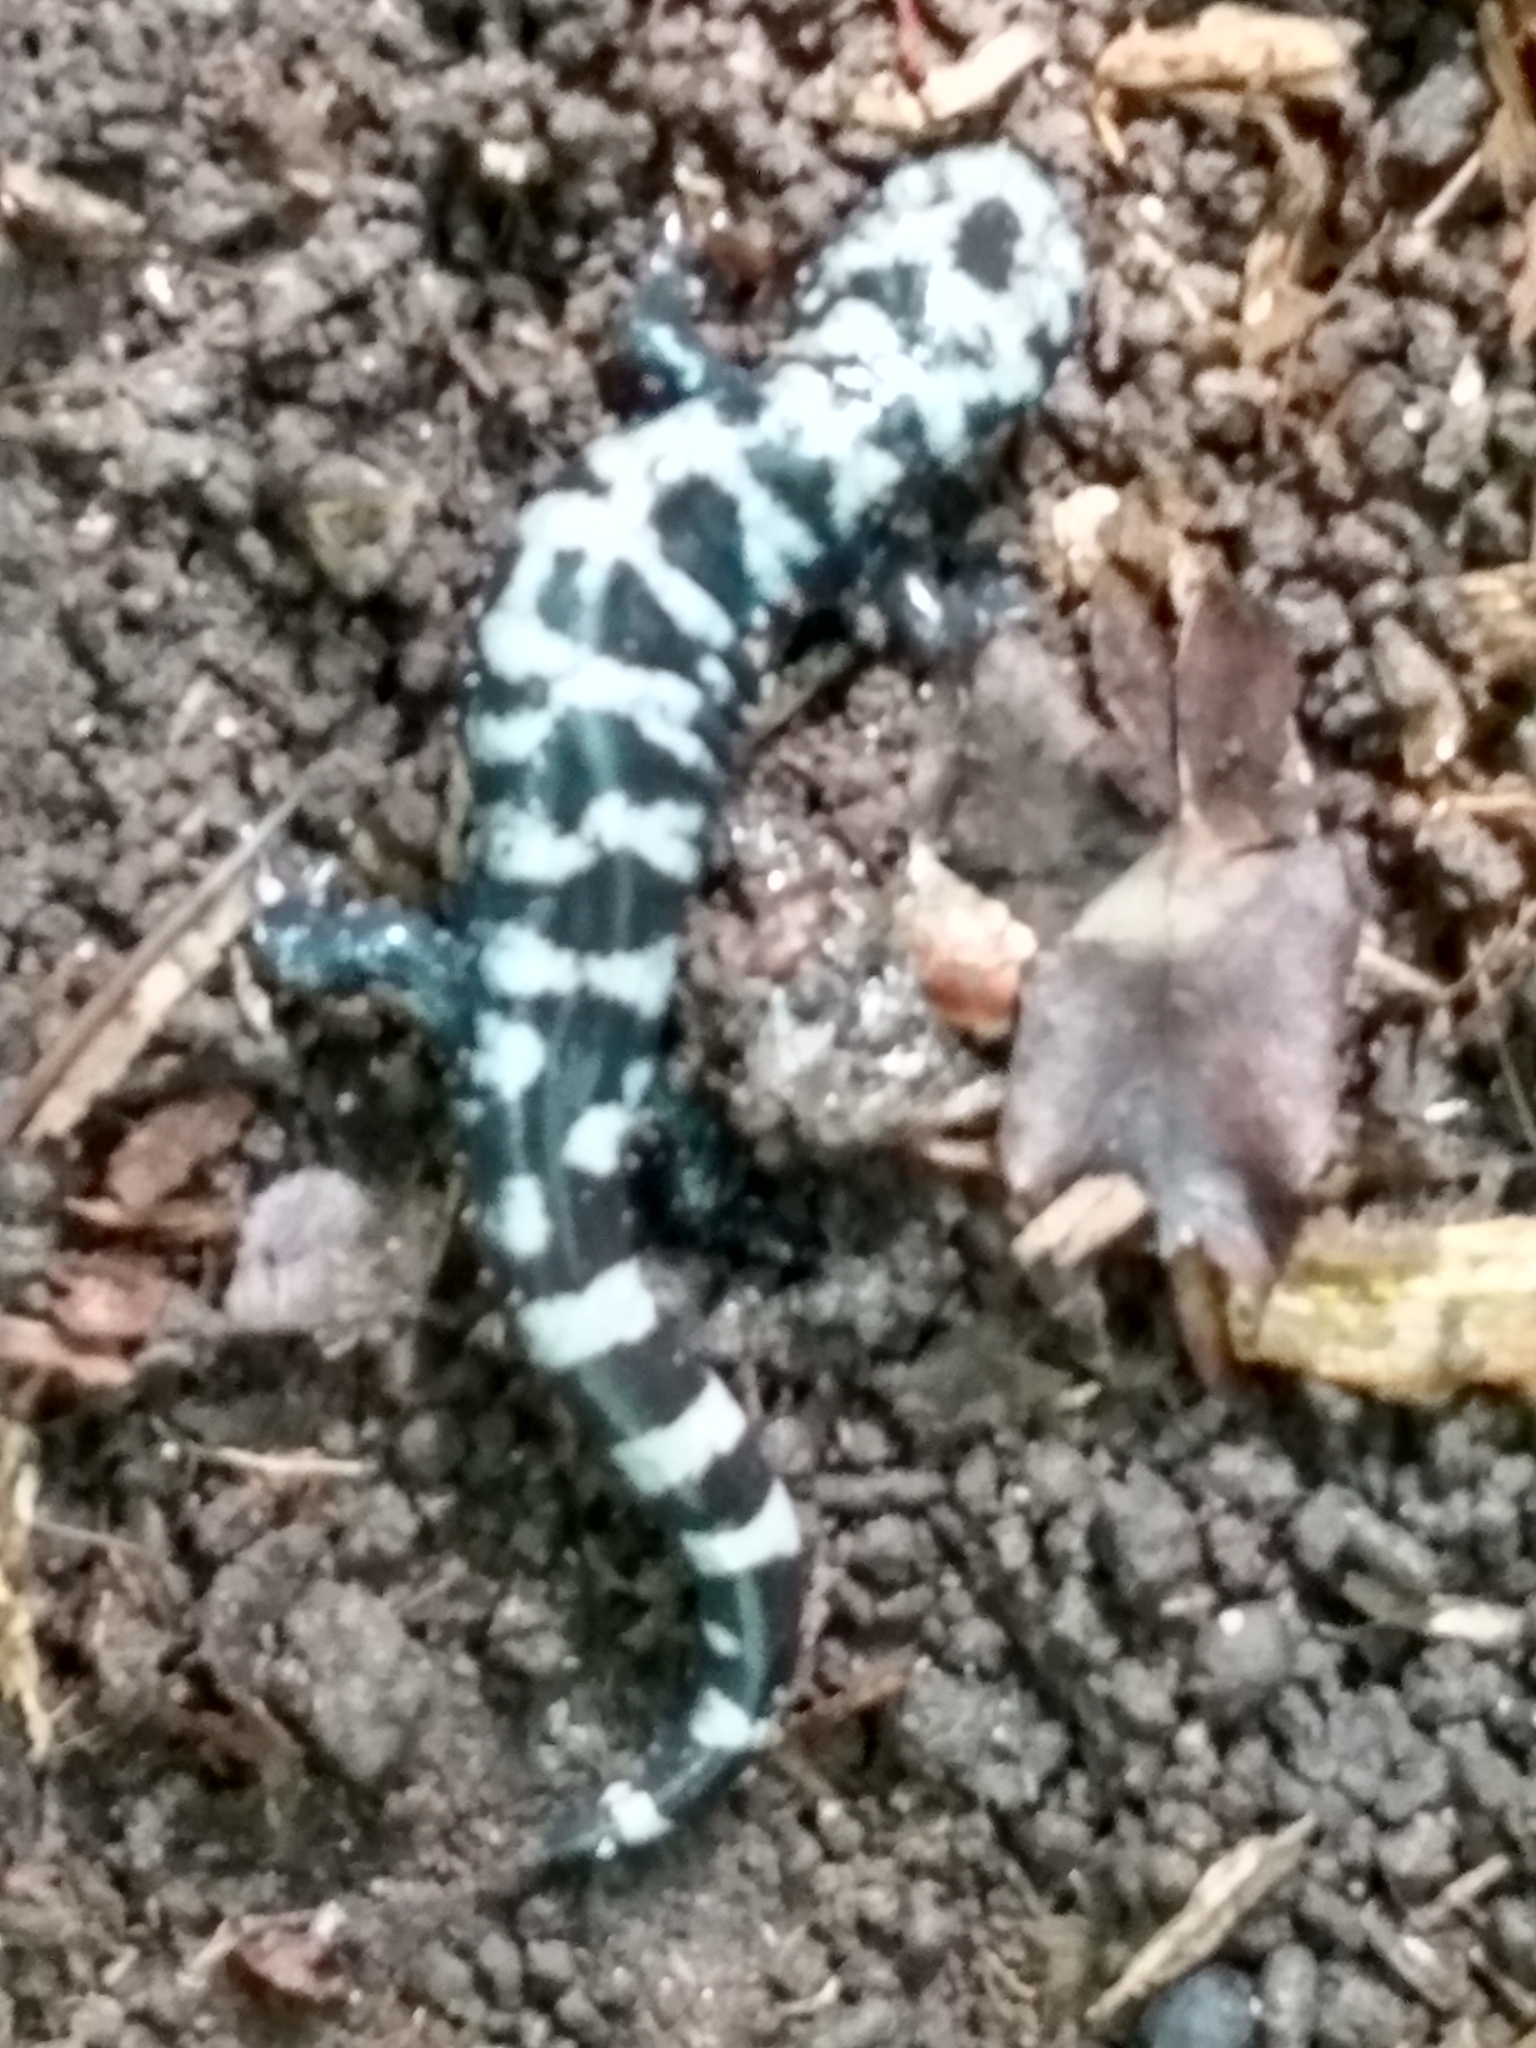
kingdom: Animalia
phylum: Chordata
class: Amphibia
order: Caudata
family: Ambystomatidae
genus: Ambystoma
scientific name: Ambystoma opacum
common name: Marbled salamander
